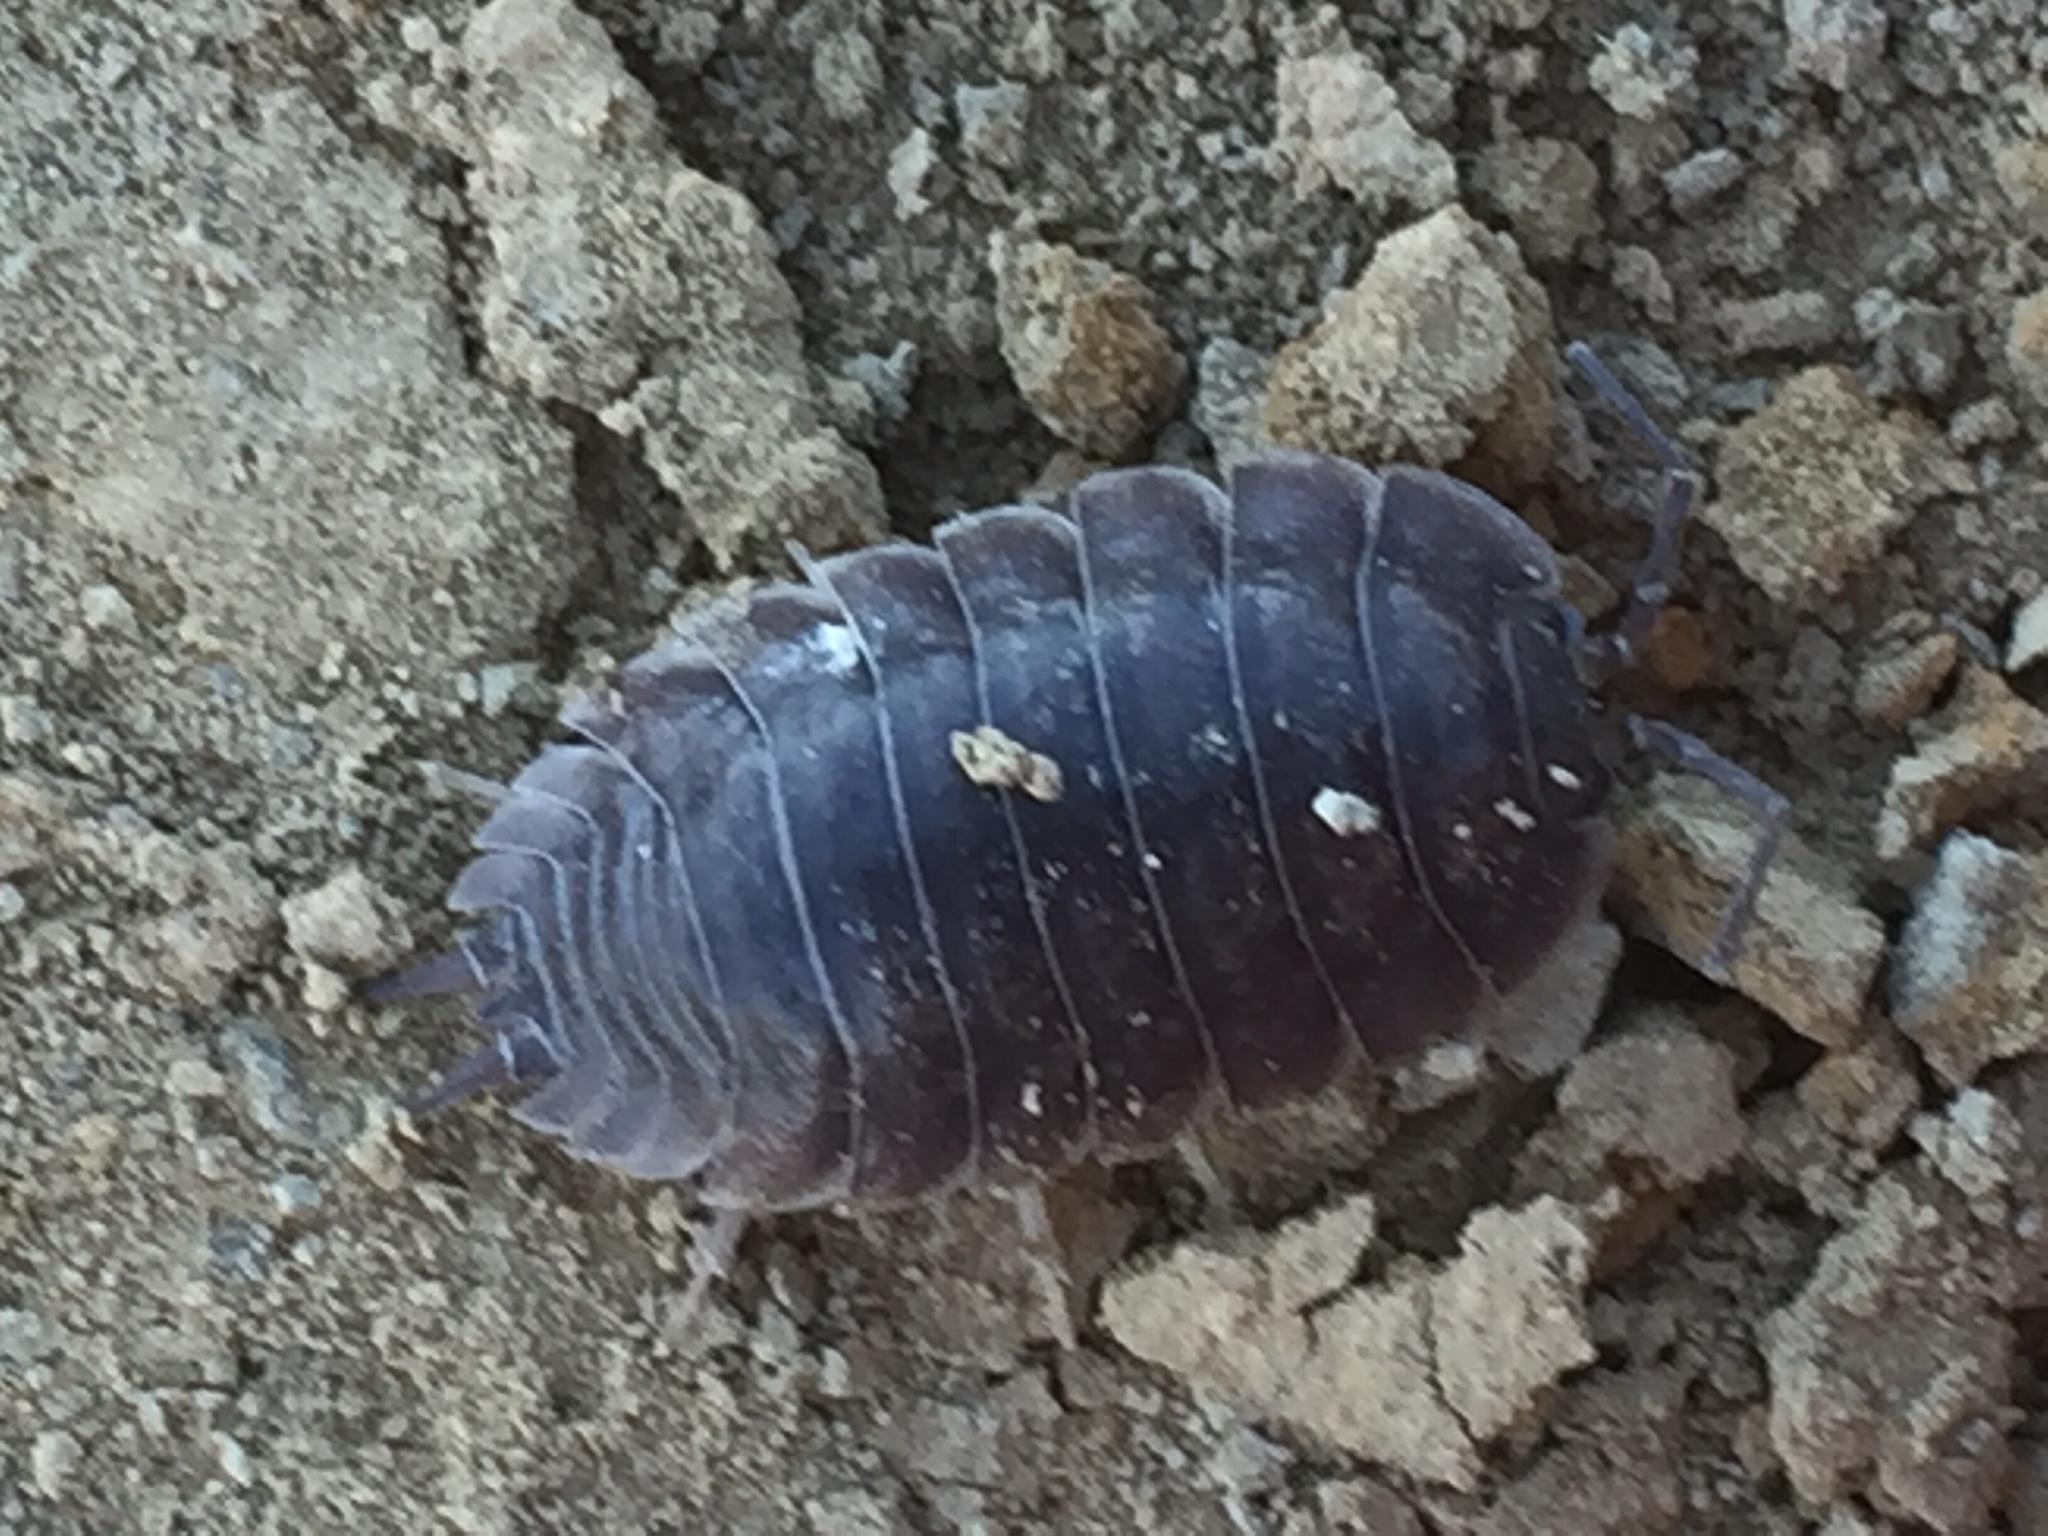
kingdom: Animalia
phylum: Arthropoda
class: Malacostraca
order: Isopoda
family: Porcellionidae
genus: Porcellio
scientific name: Porcellio laevis
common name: Swift woodlouse
